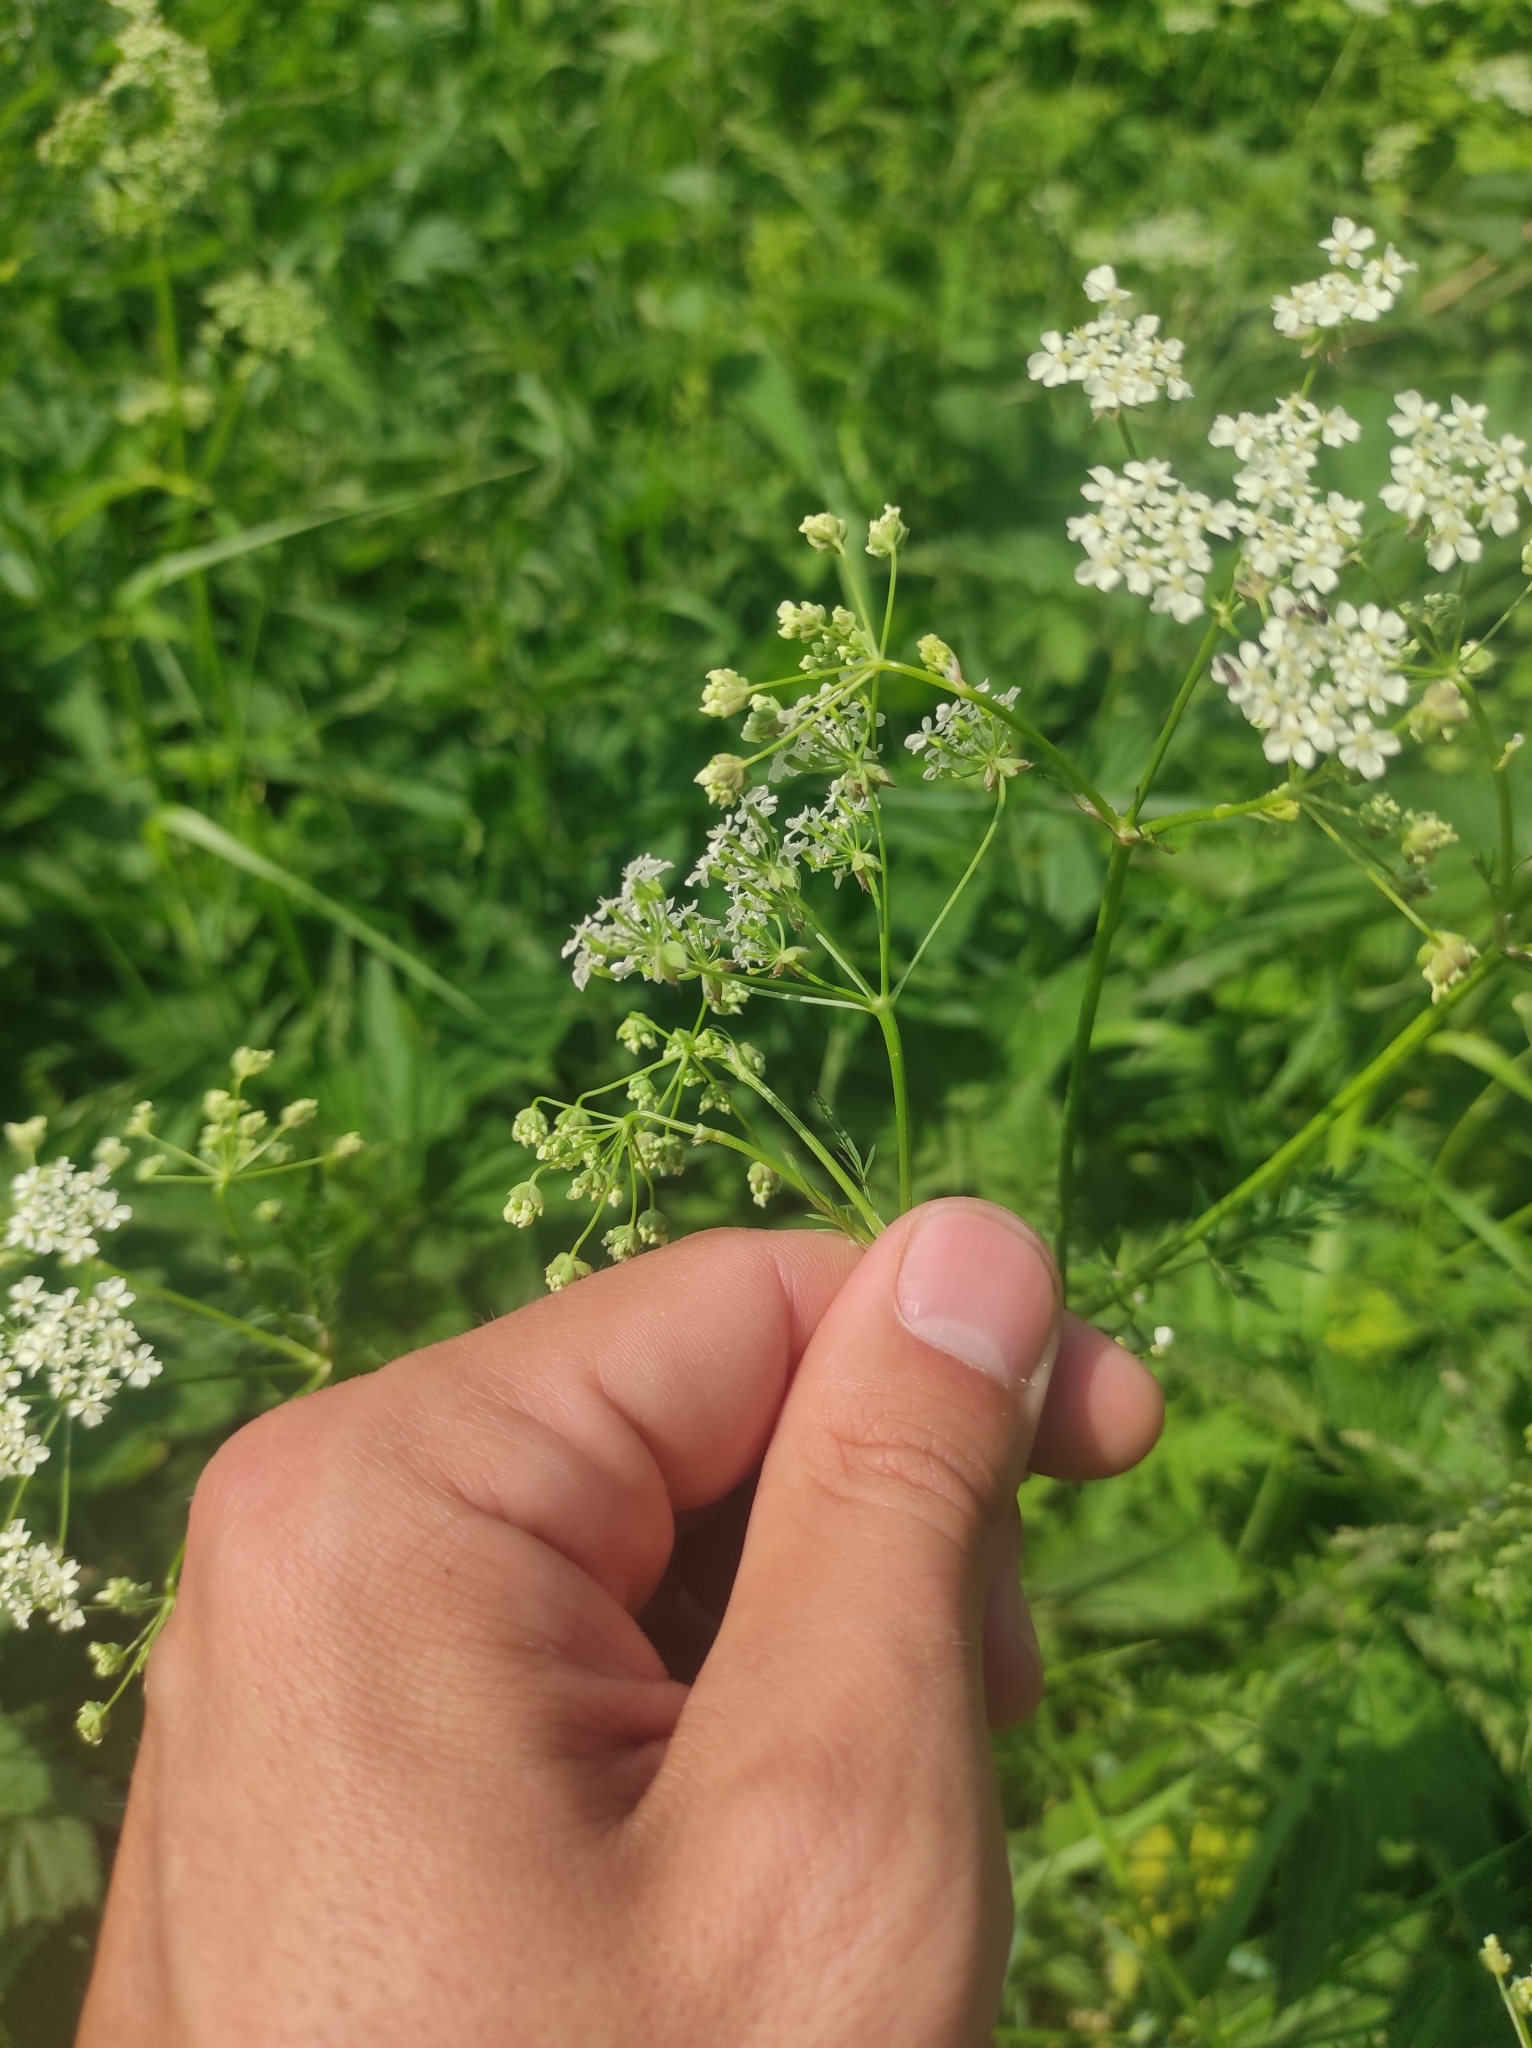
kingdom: Plantae
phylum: Tracheophyta
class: Magnoliopsida
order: Apiales
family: Apiaceae
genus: Anthriscus
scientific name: Anthriscus sylvestris
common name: Cow parsley
